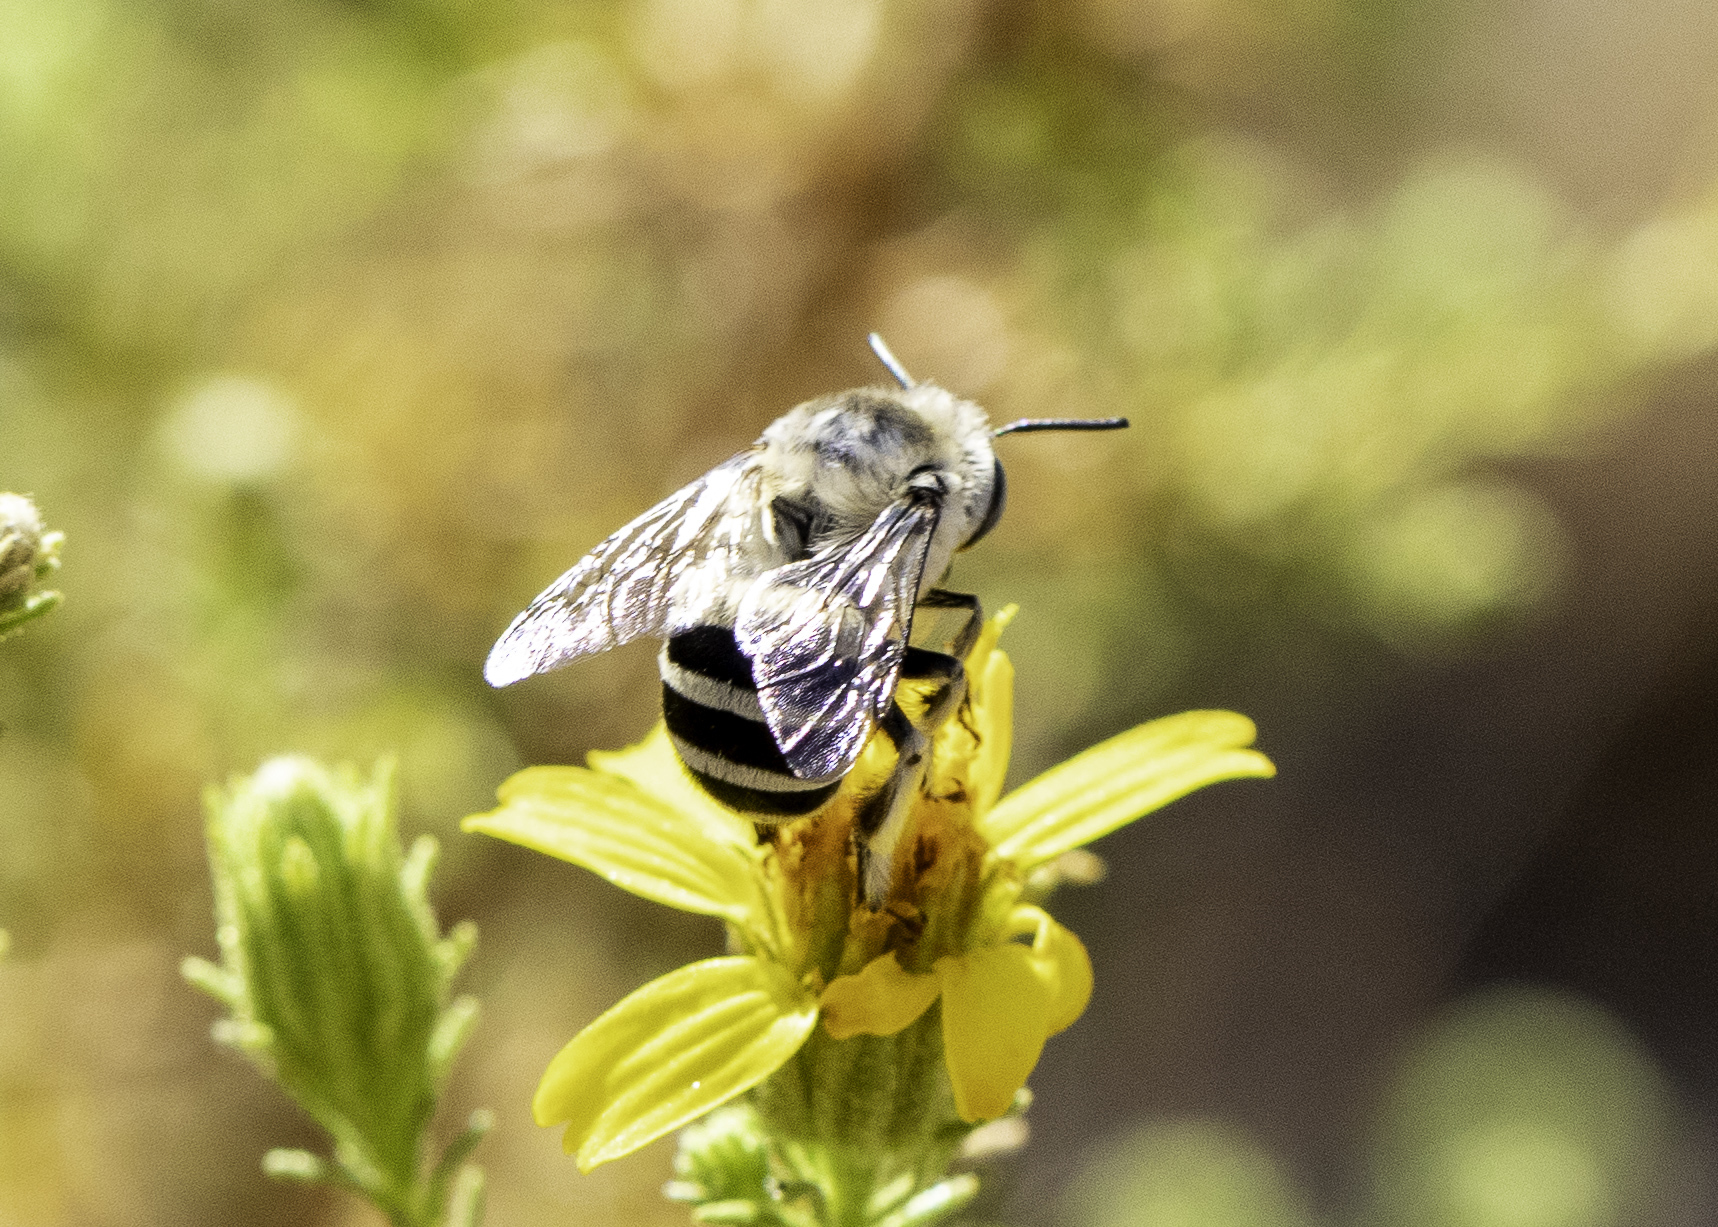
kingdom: Animalia
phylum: Arthropoda
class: Insecta
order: Hymenoptera
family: Apidae
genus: Anthophora
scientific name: Anthophora urbana
